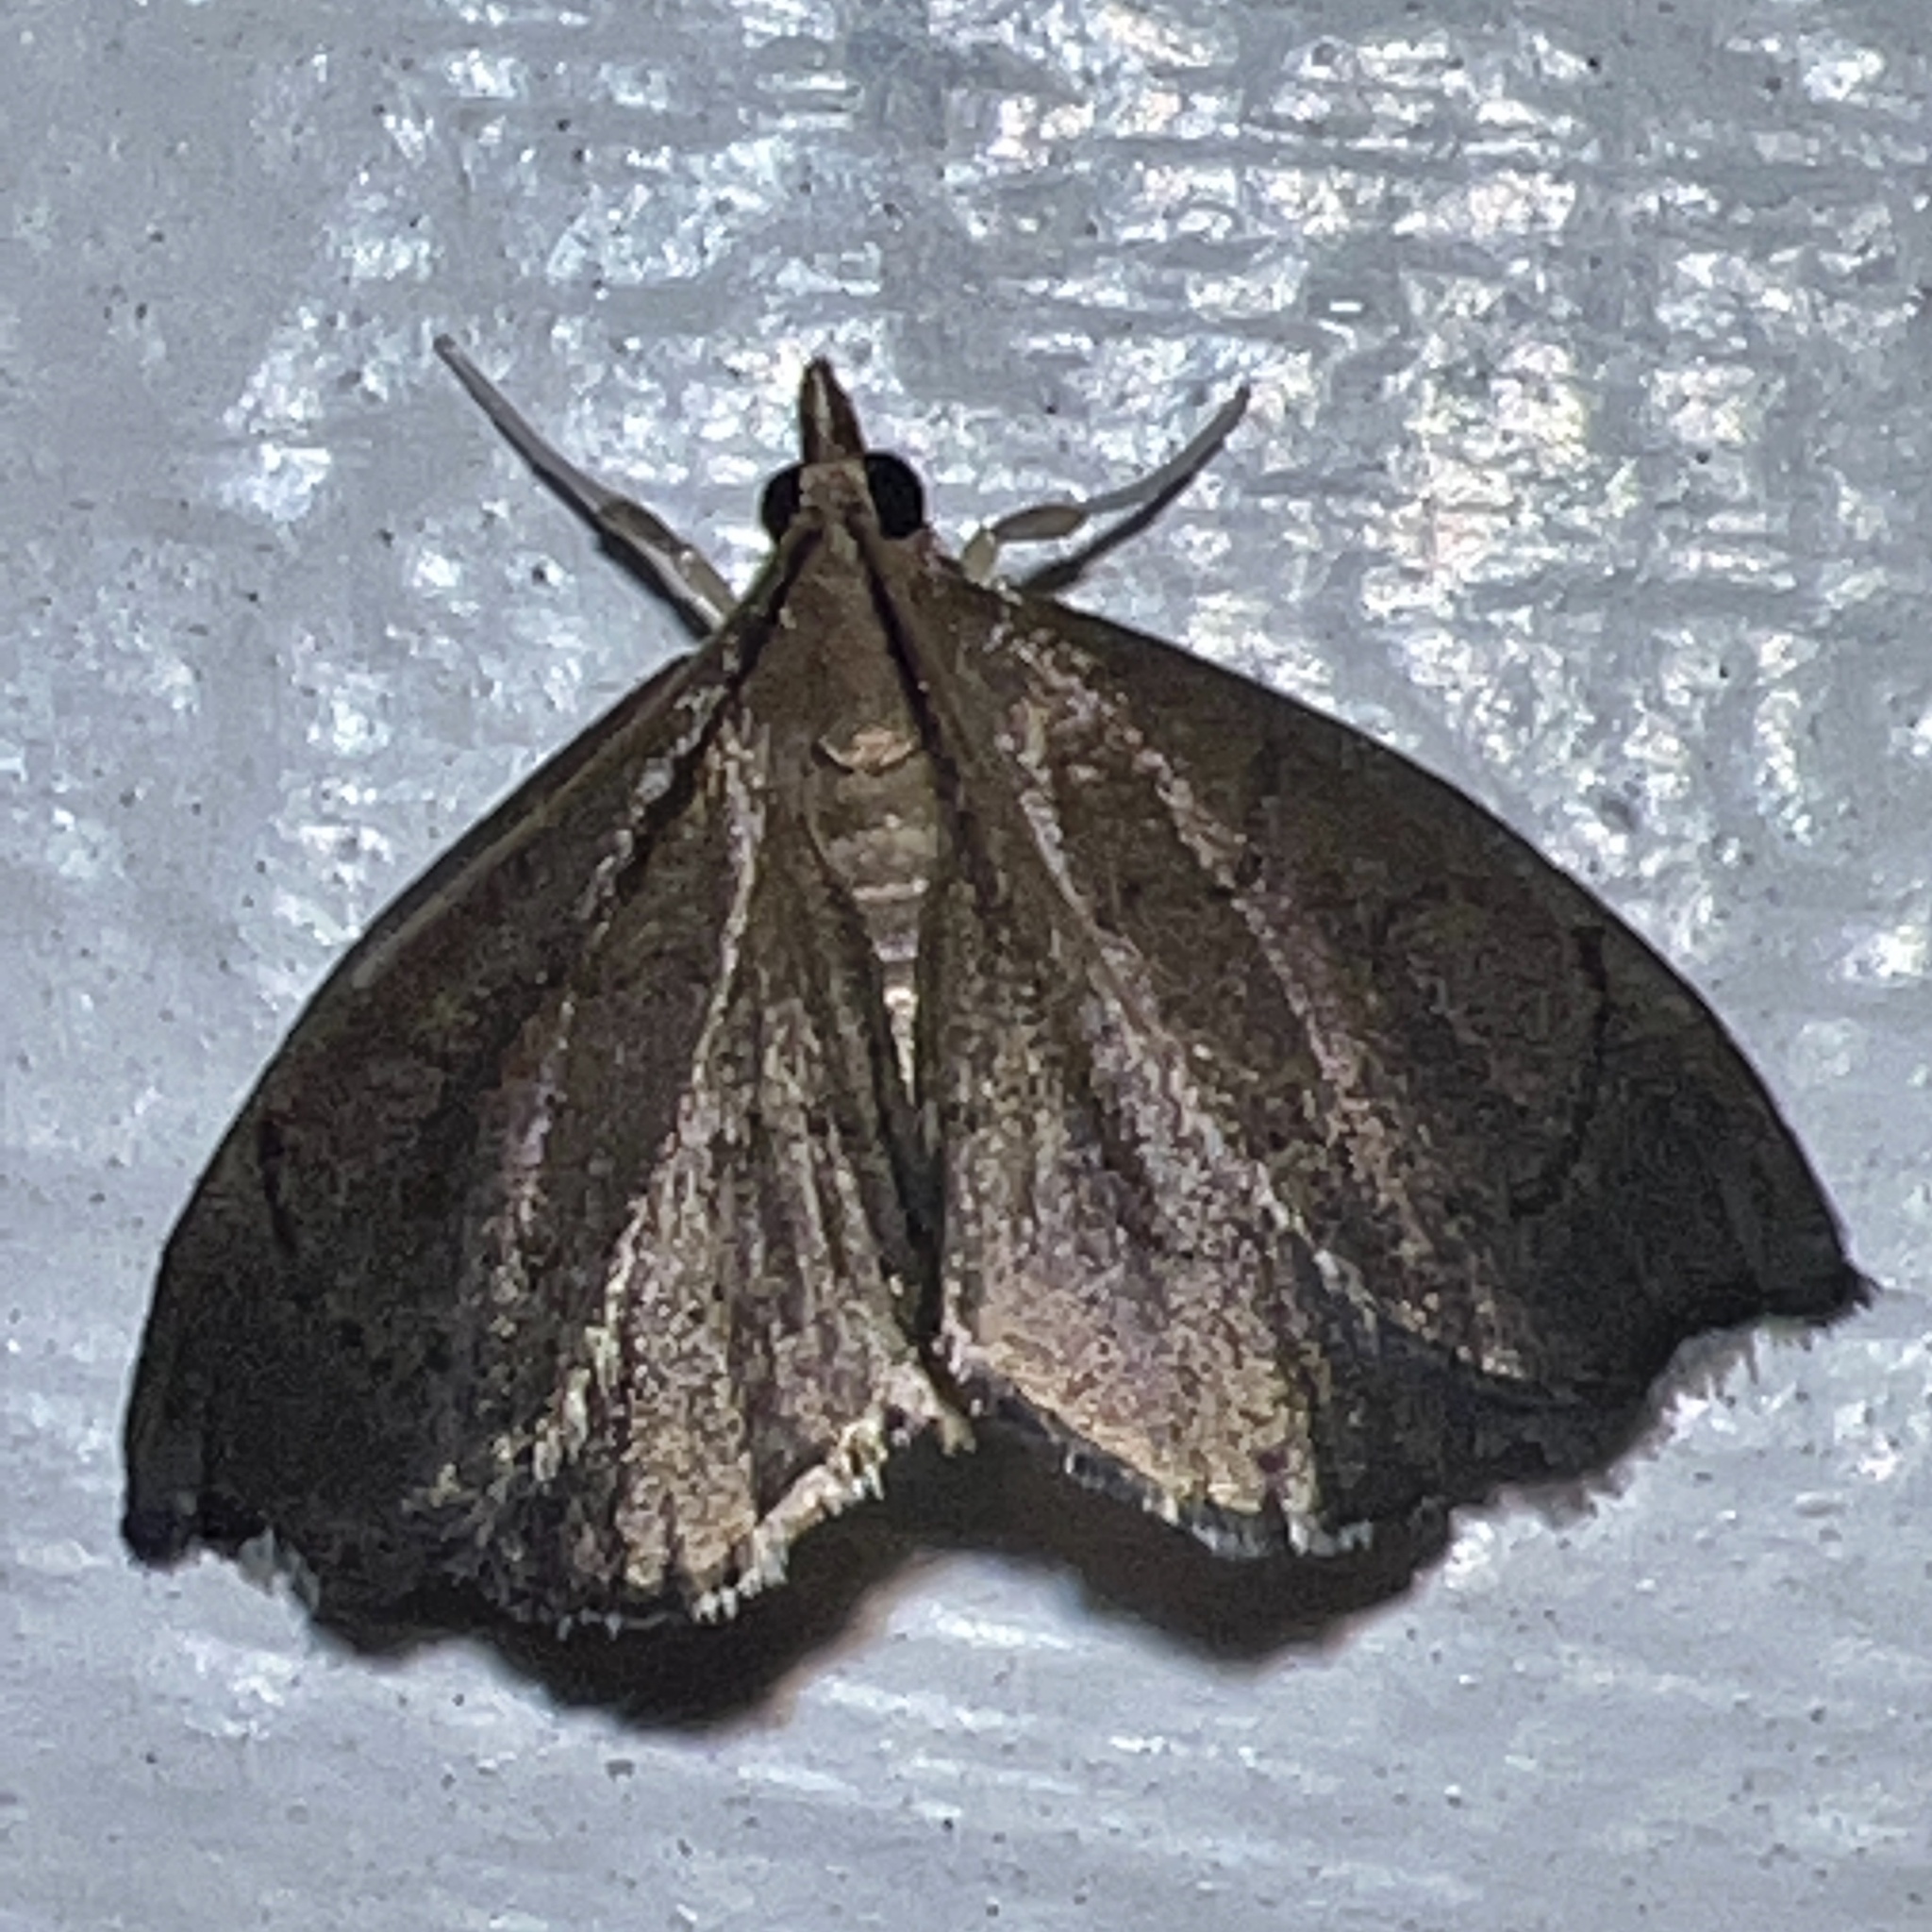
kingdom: Animalia
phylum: Arthropoda
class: Insecta
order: Lepidoptera
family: Crambidae
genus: Perispasta
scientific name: Perispasta caeculalis
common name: Titian peale's moth
